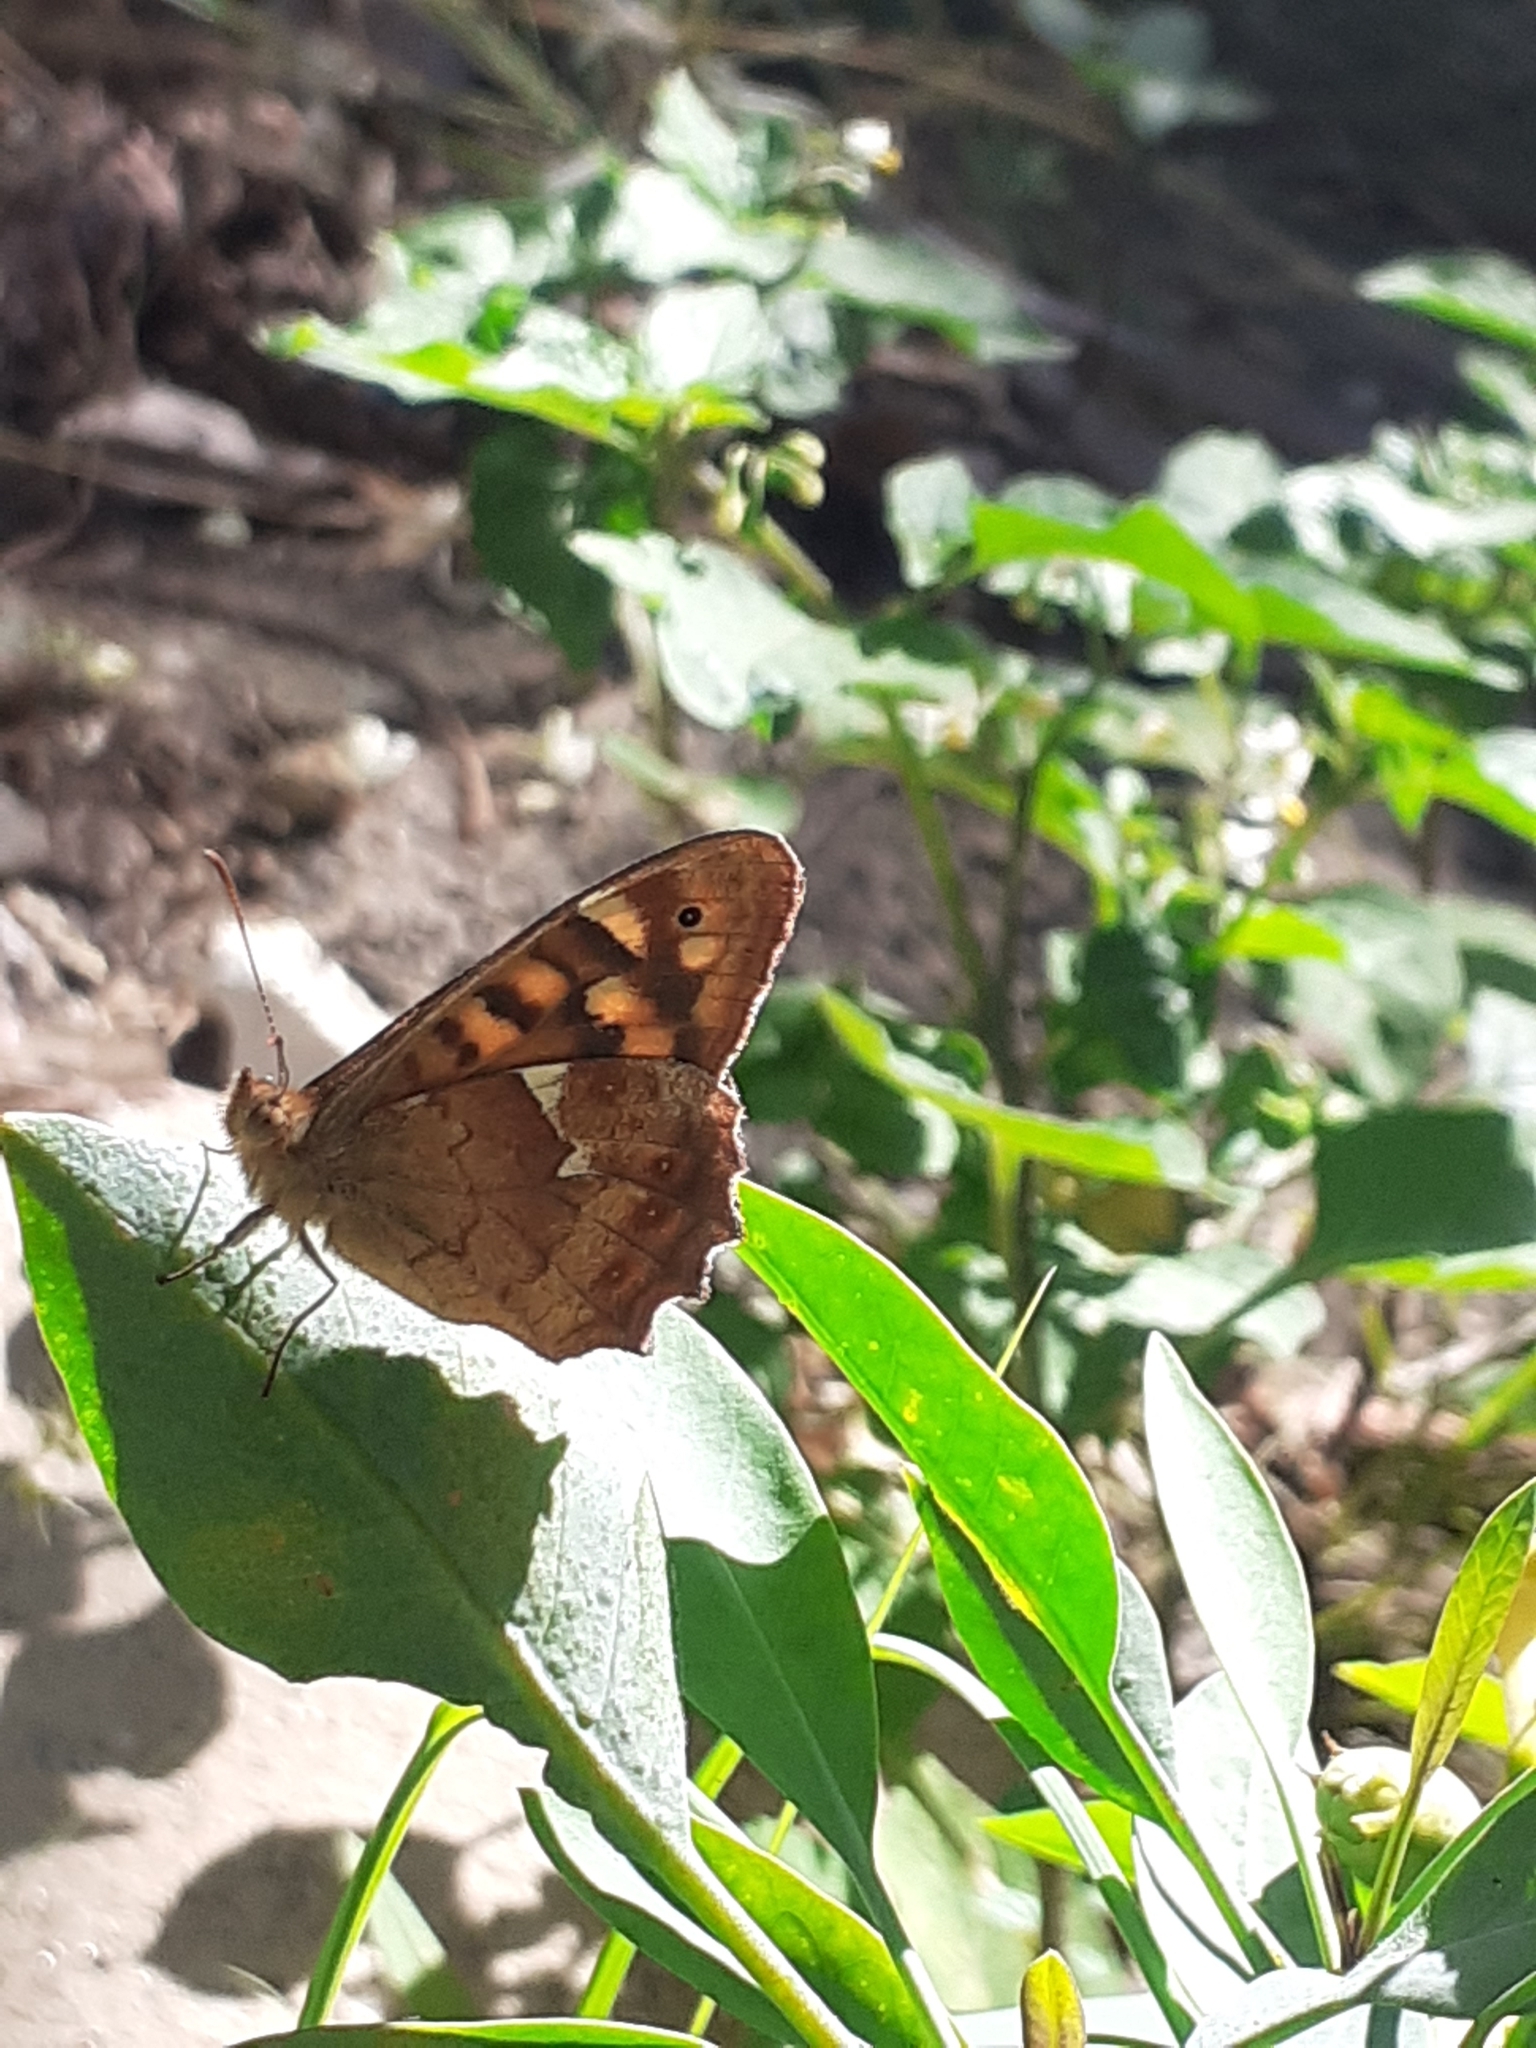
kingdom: Animalia
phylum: Arthropoda
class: Insecta
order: Lepidoptera
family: Nymphalidae
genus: Pararge
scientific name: Pararge aegeria
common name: Speckled wood
